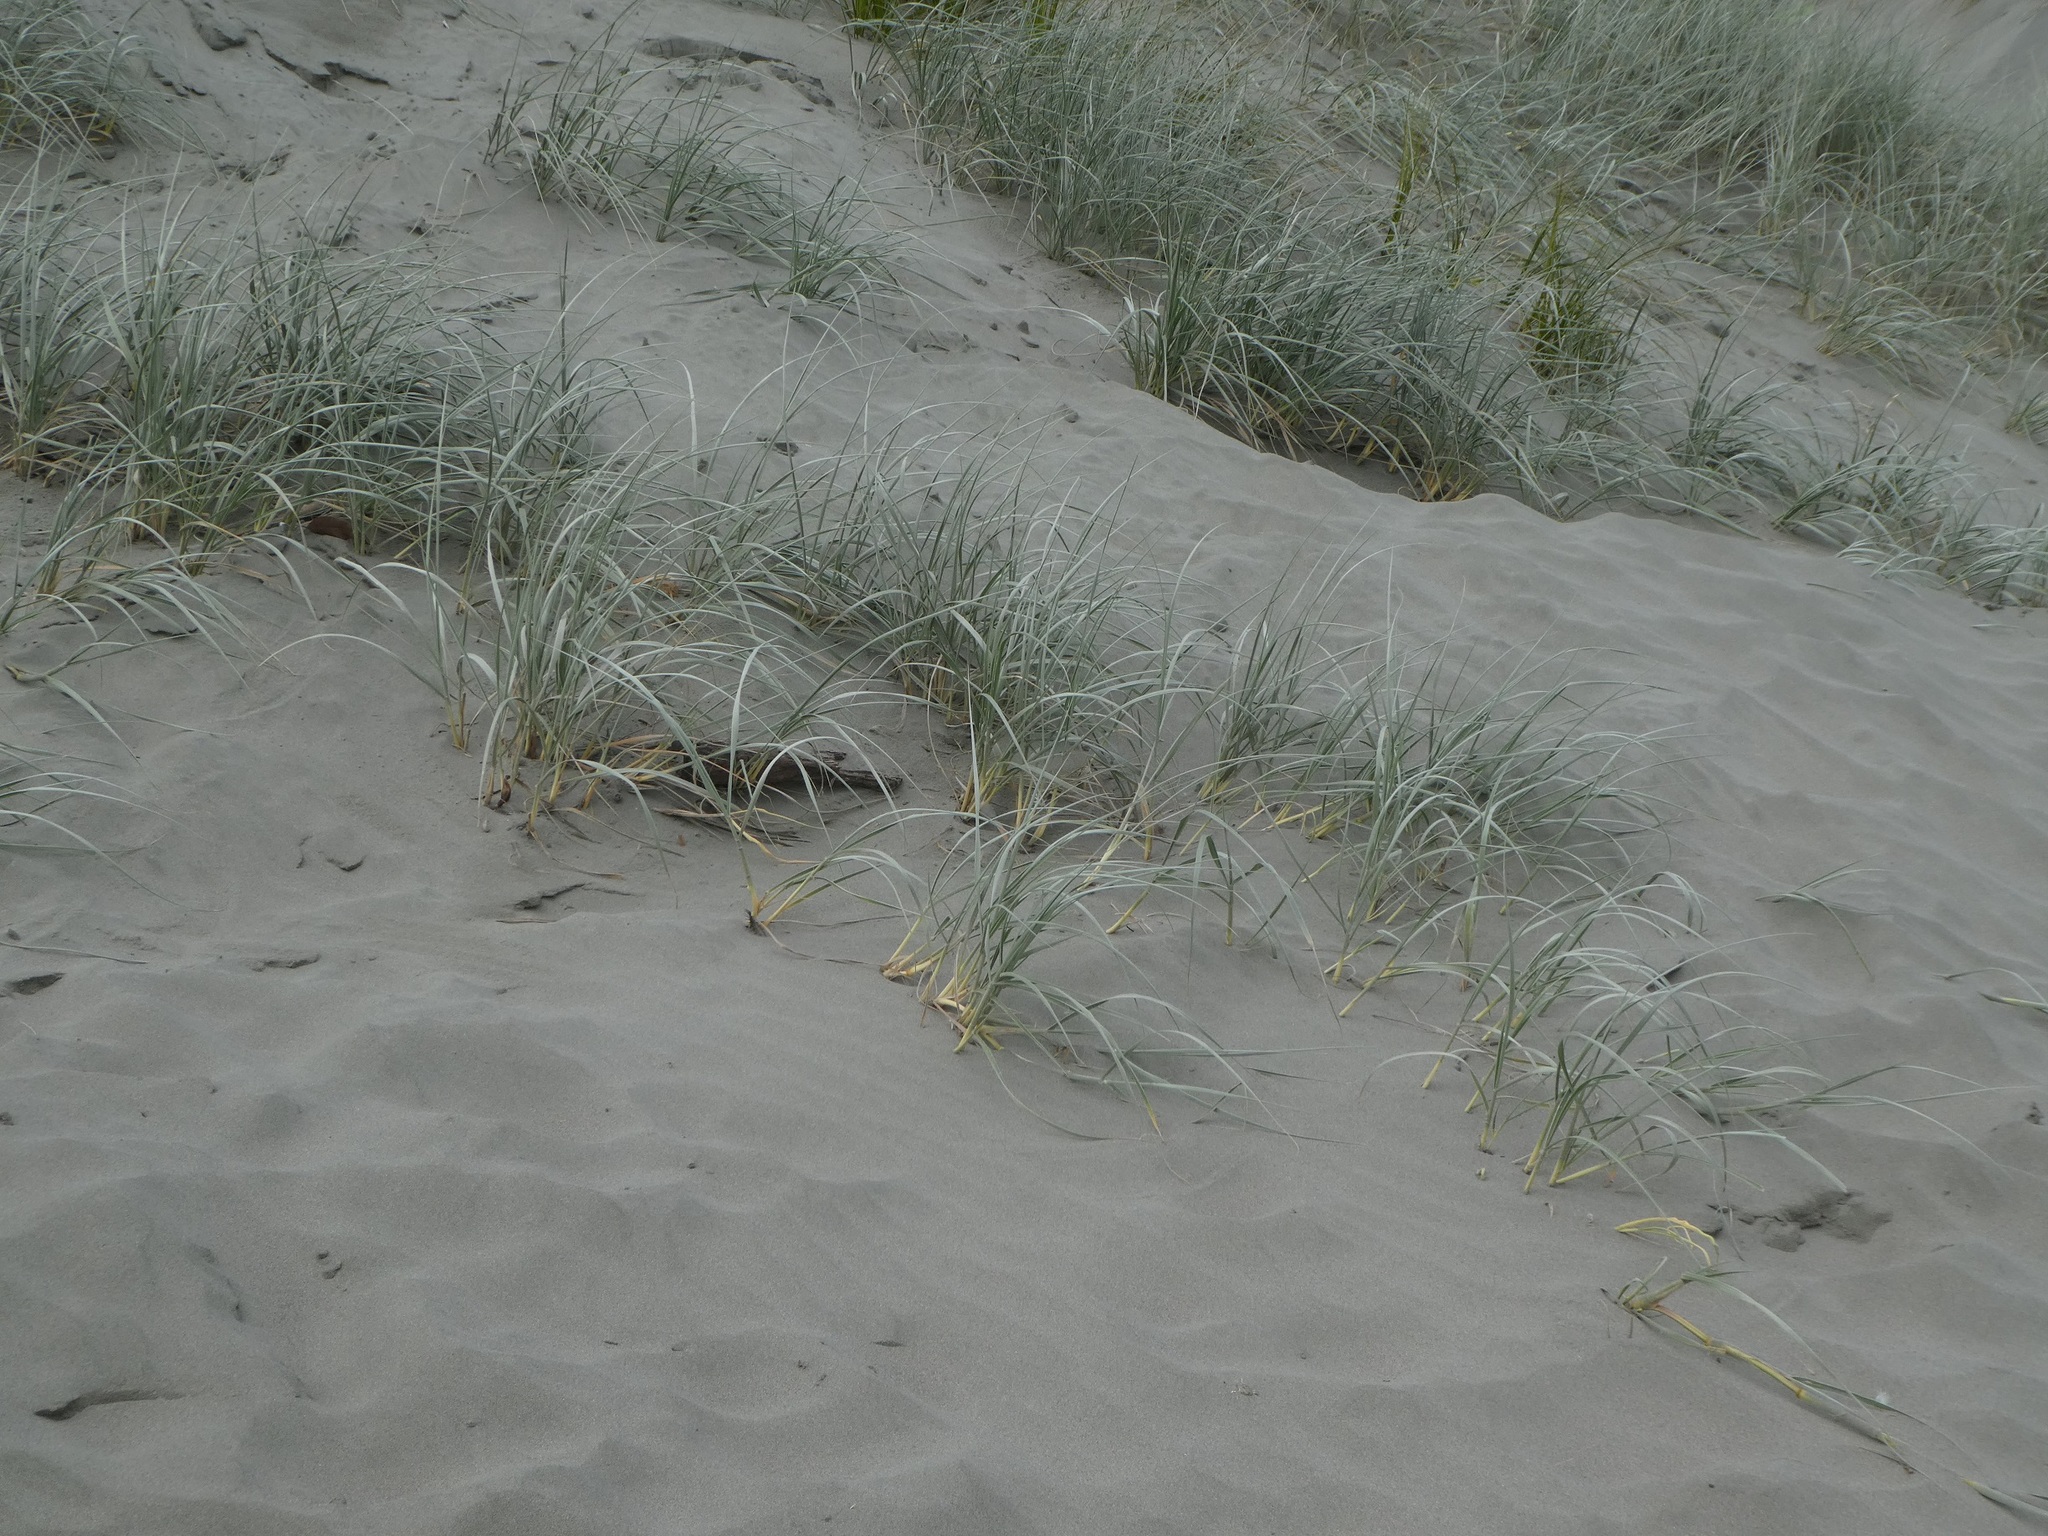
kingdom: Plantae
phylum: Tracheophyta
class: Liliopsida
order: Poales
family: Poaceae
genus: Spinifex
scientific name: Spinifex sericeus
